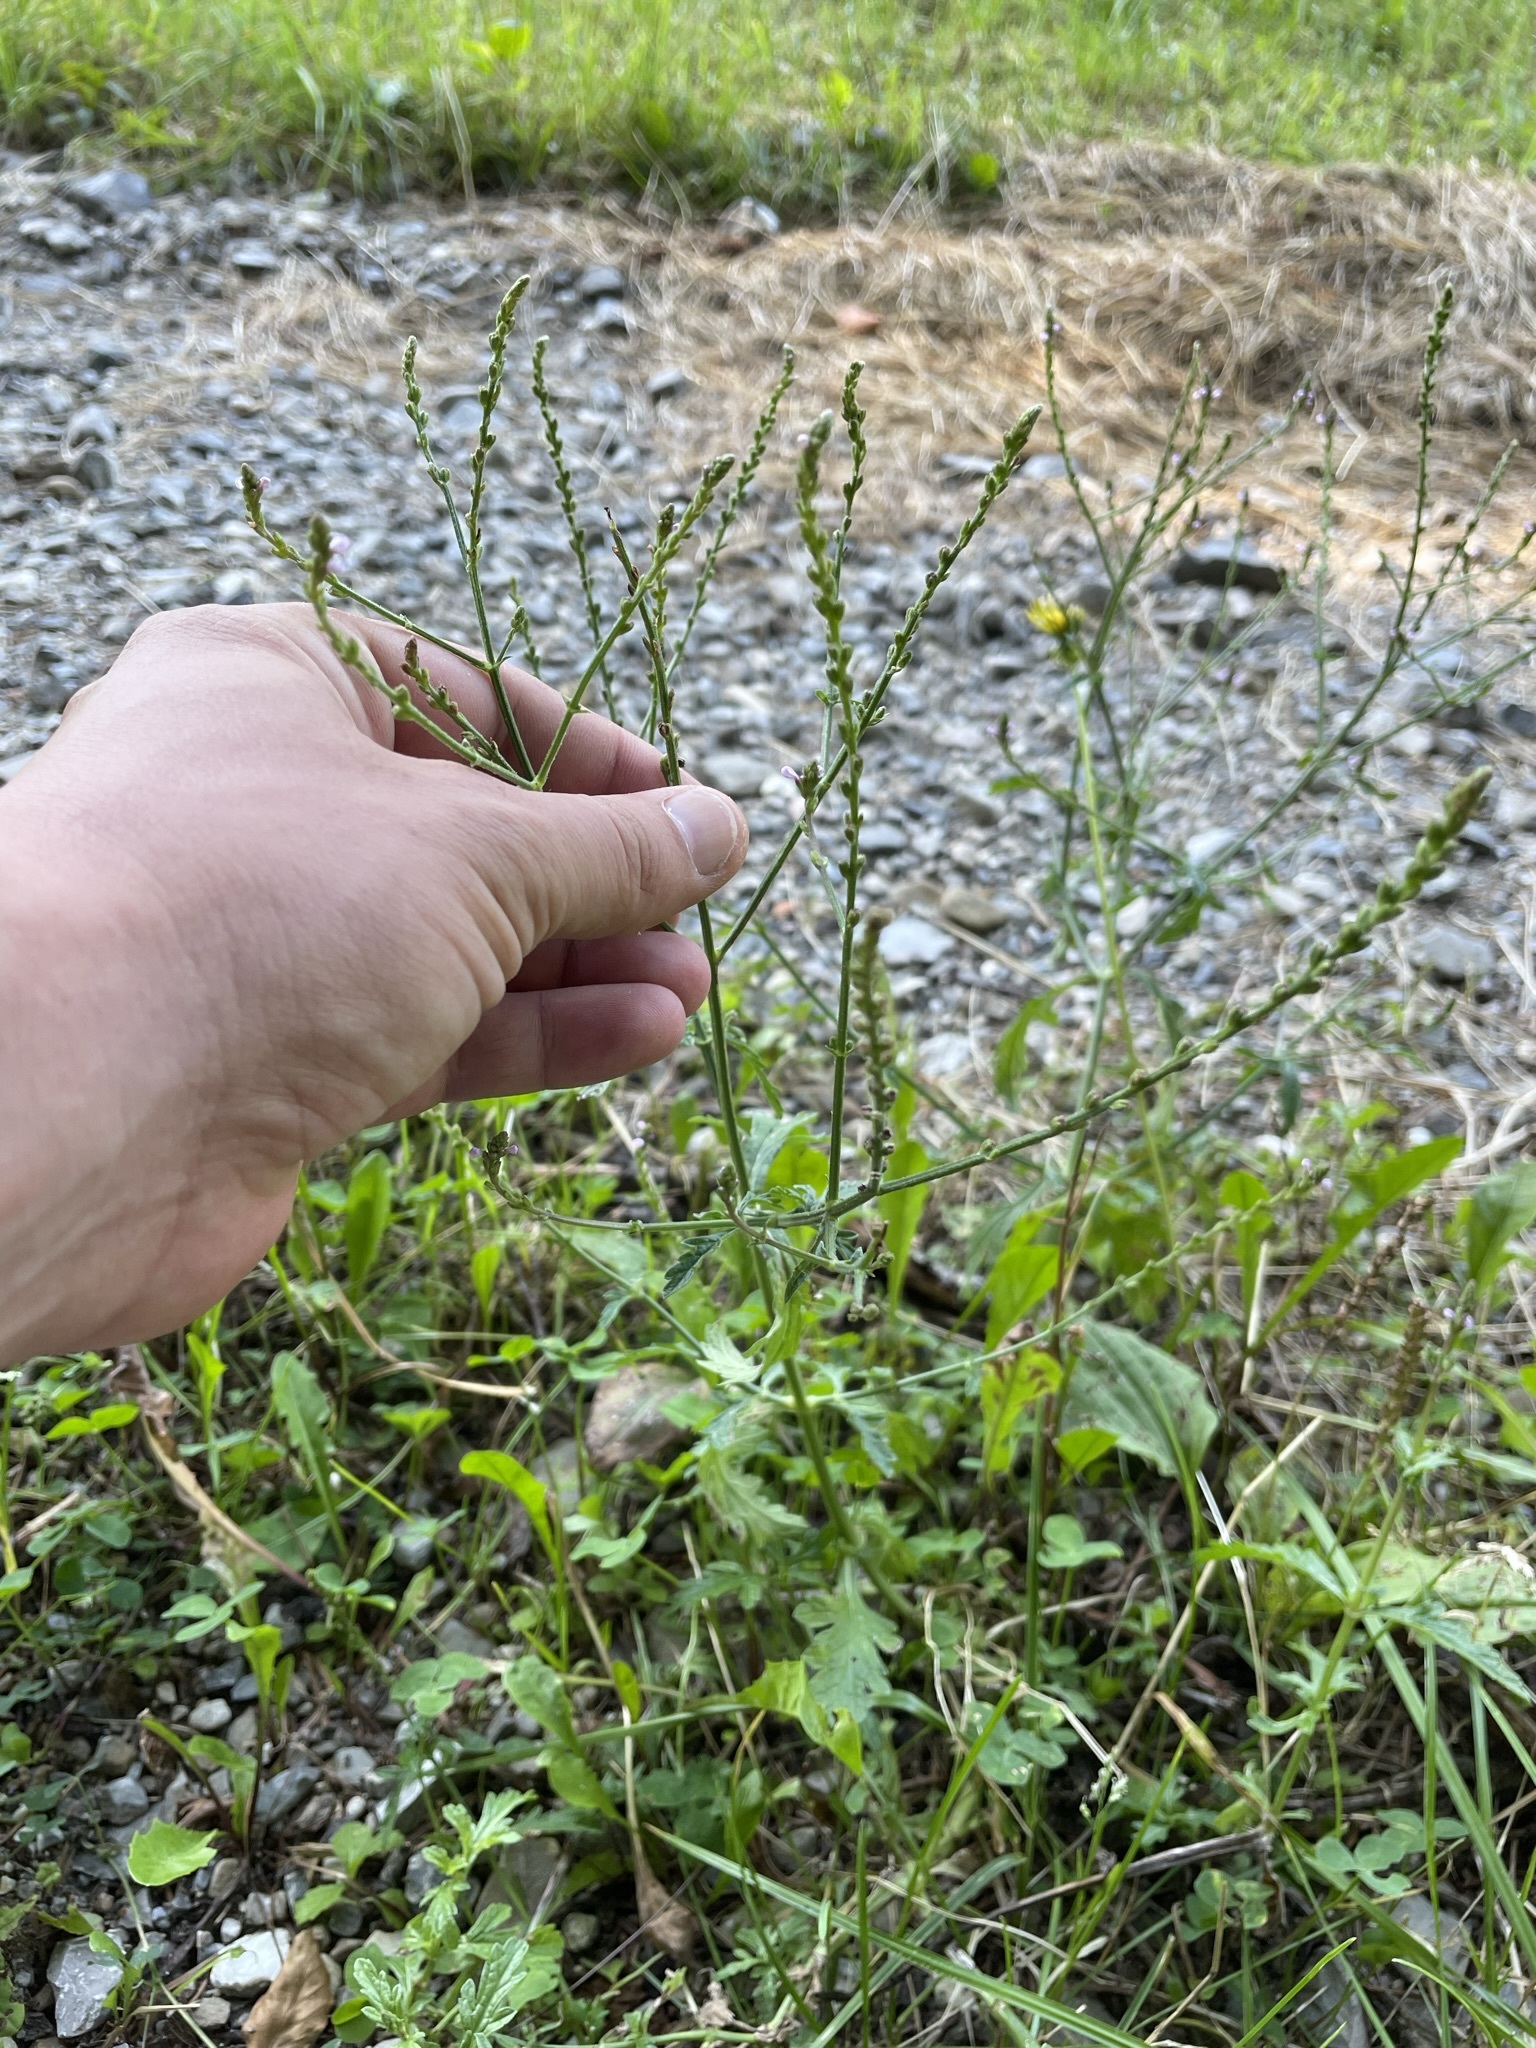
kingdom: Plantae
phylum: Tracheophyta
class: Magnoliopsida
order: Lamiales
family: Verbenaceae
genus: Verbena
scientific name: Verbena officinalis
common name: Vervain
